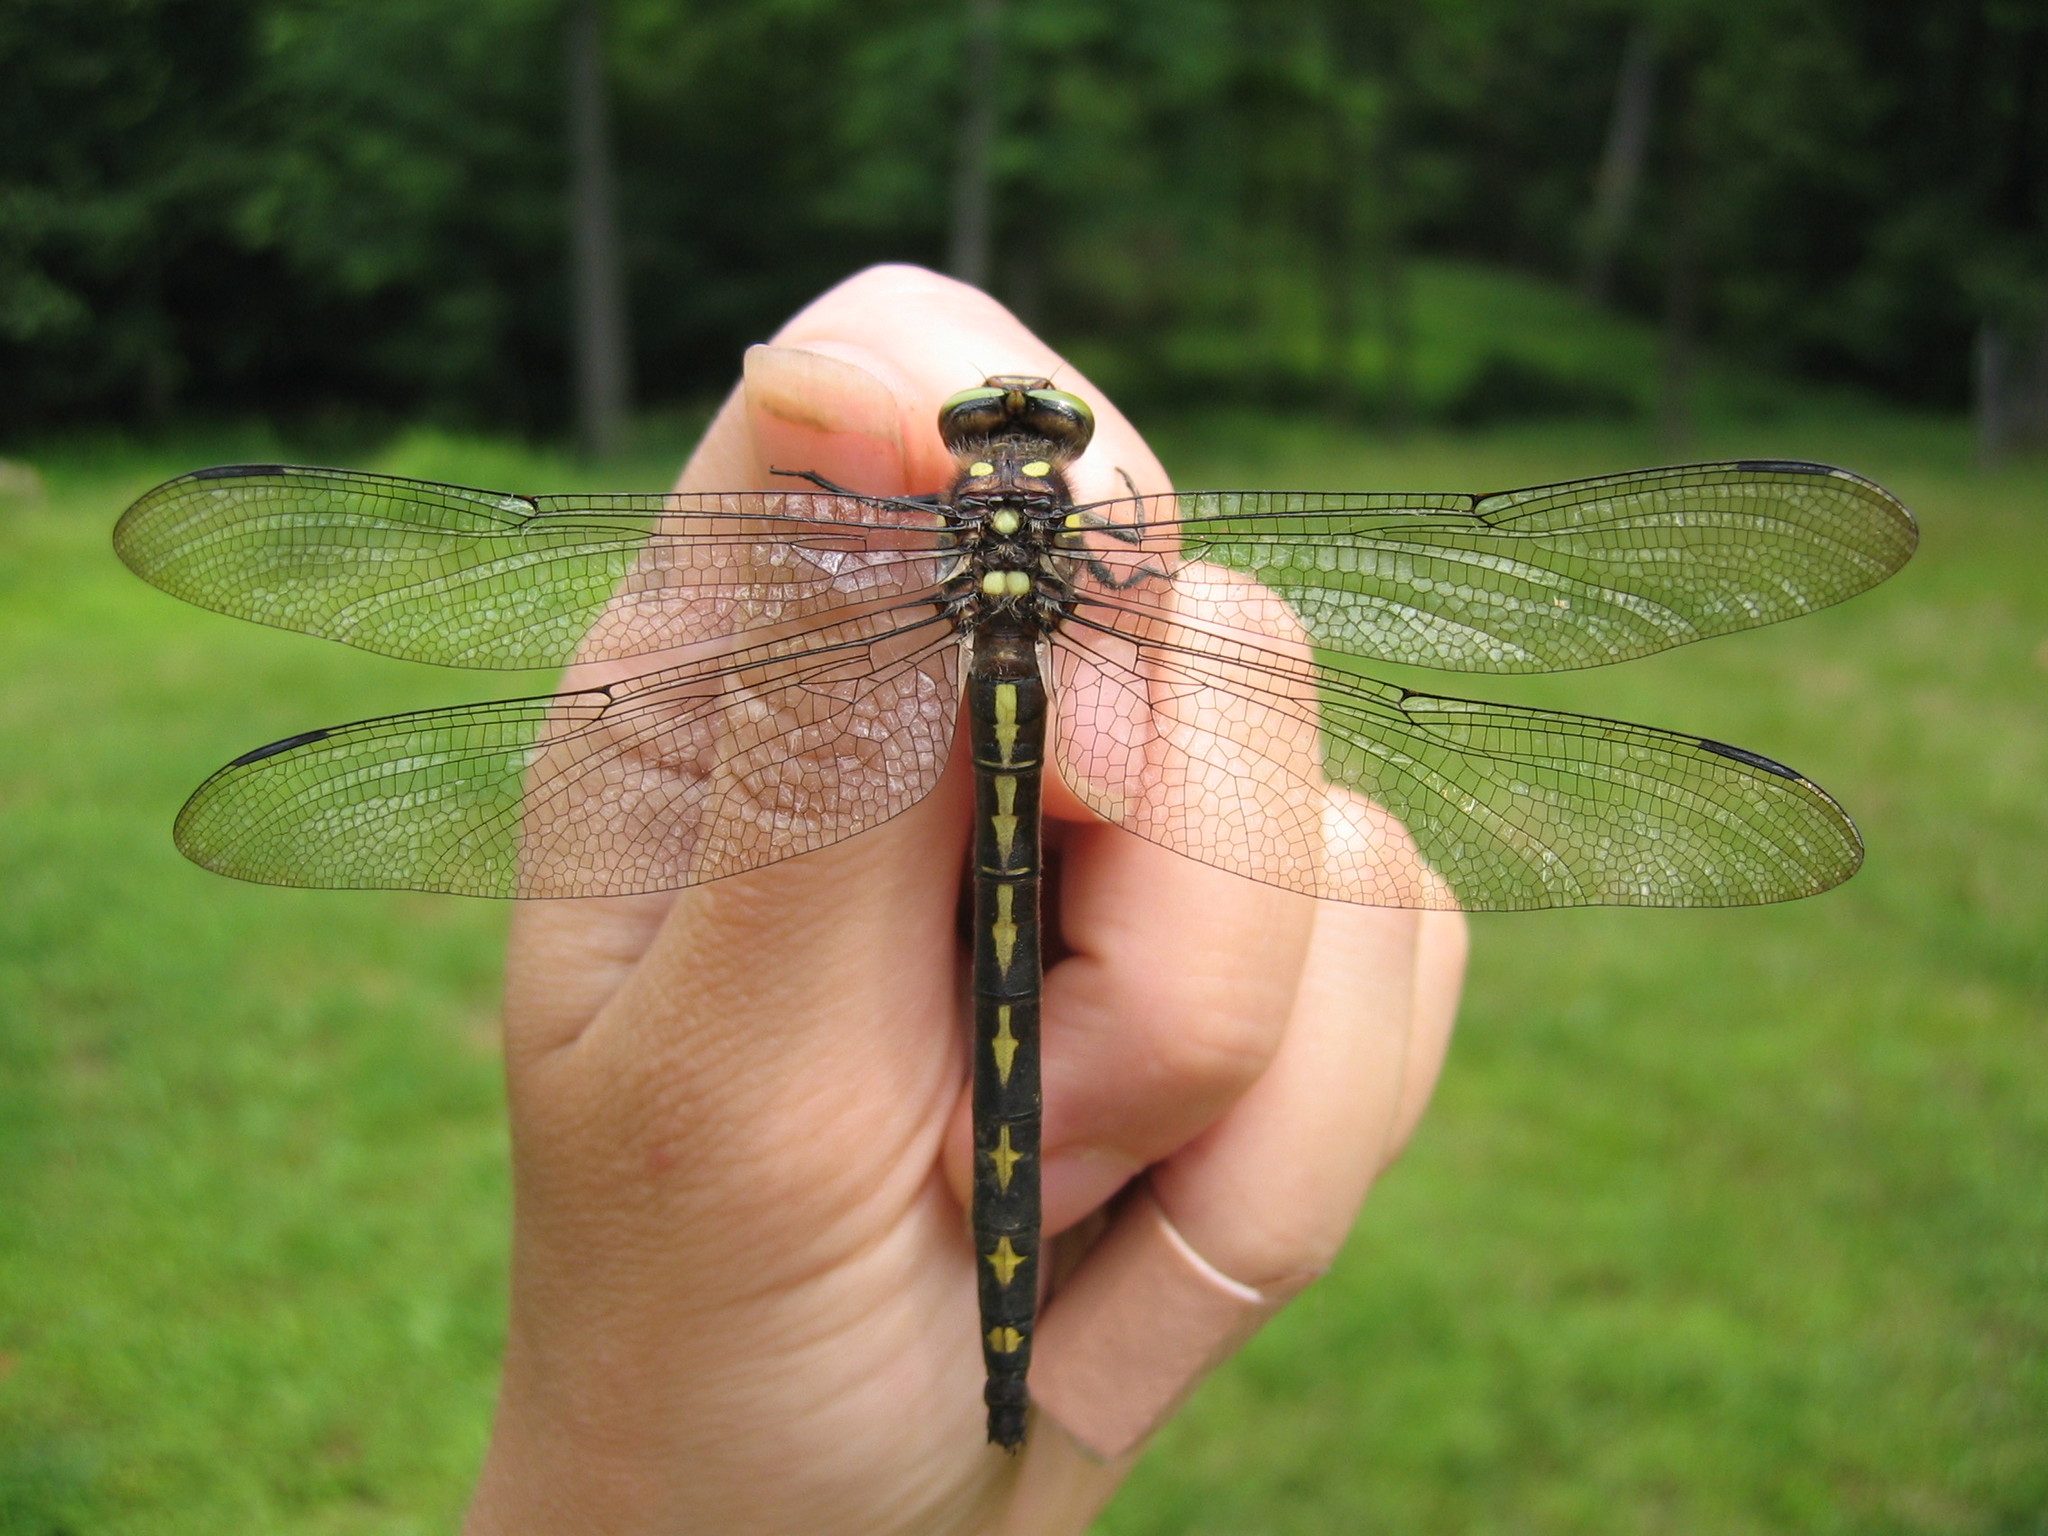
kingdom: Animalia
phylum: Arthropoda
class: Insecta
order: Odonata
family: Cordulegastridae
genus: Cordulegaster
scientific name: Cordulegaster obliqua
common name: Arrowhead spiketail
